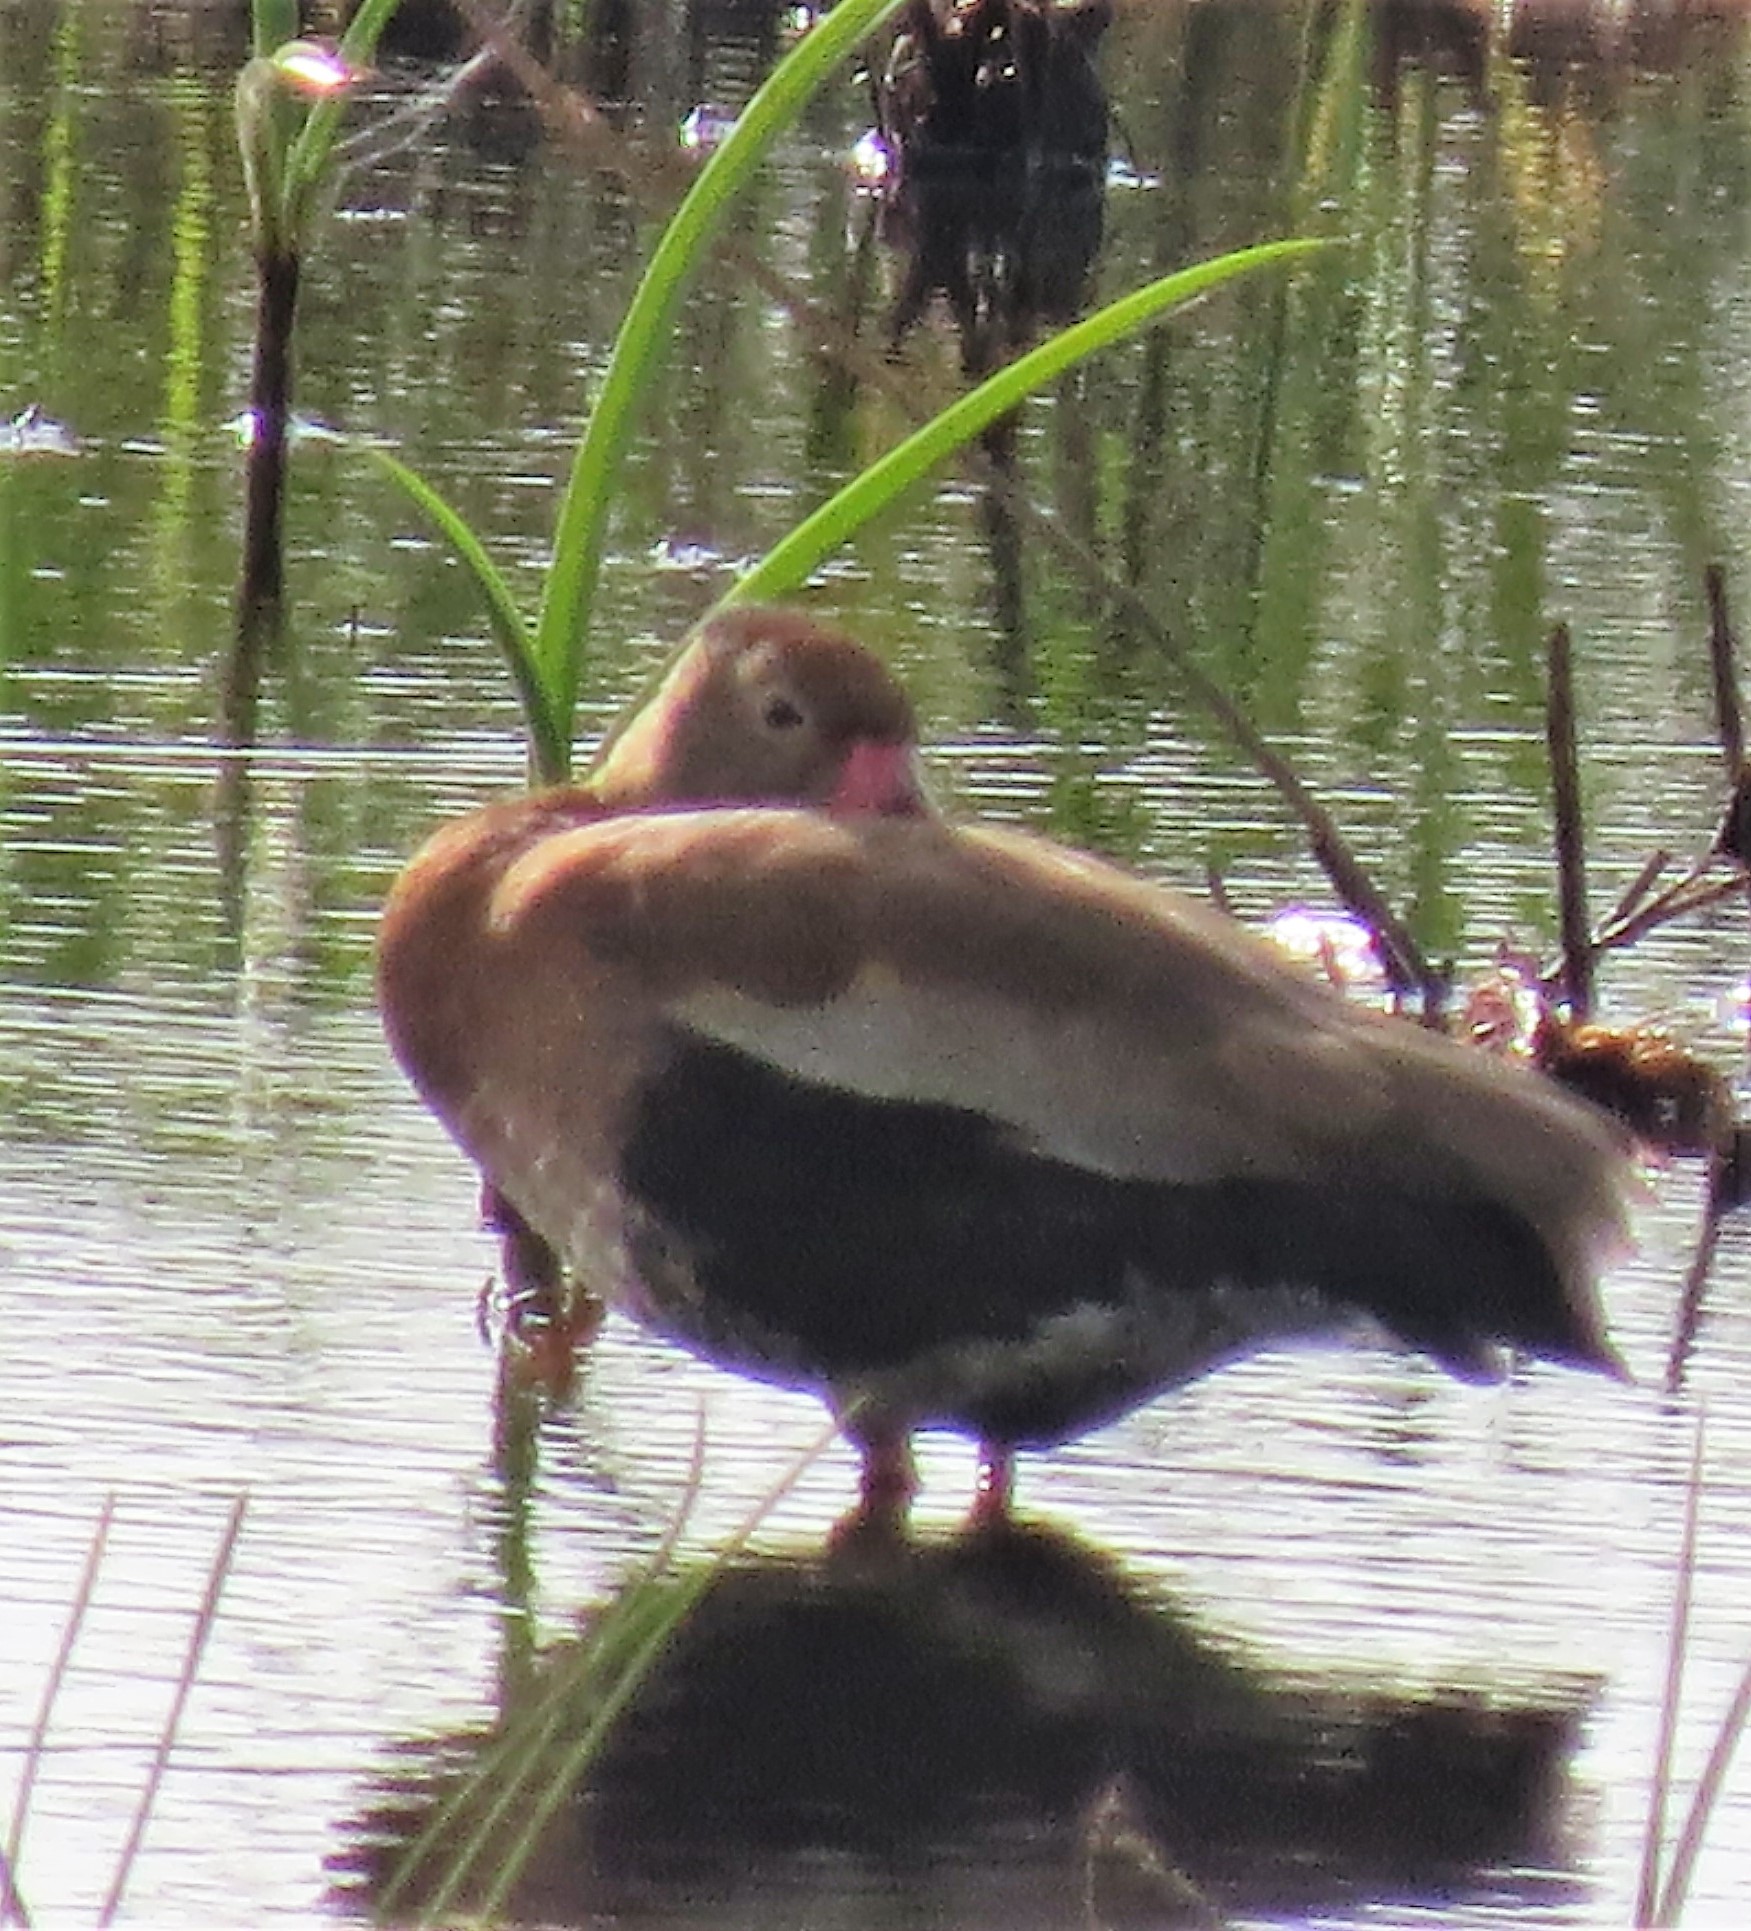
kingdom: Animalia
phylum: Chordata
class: Aves
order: Anseriformes
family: Anatidae
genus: Dendrocygna
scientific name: Dendrocygna autumnalis
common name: Black-bellied whistling duck
